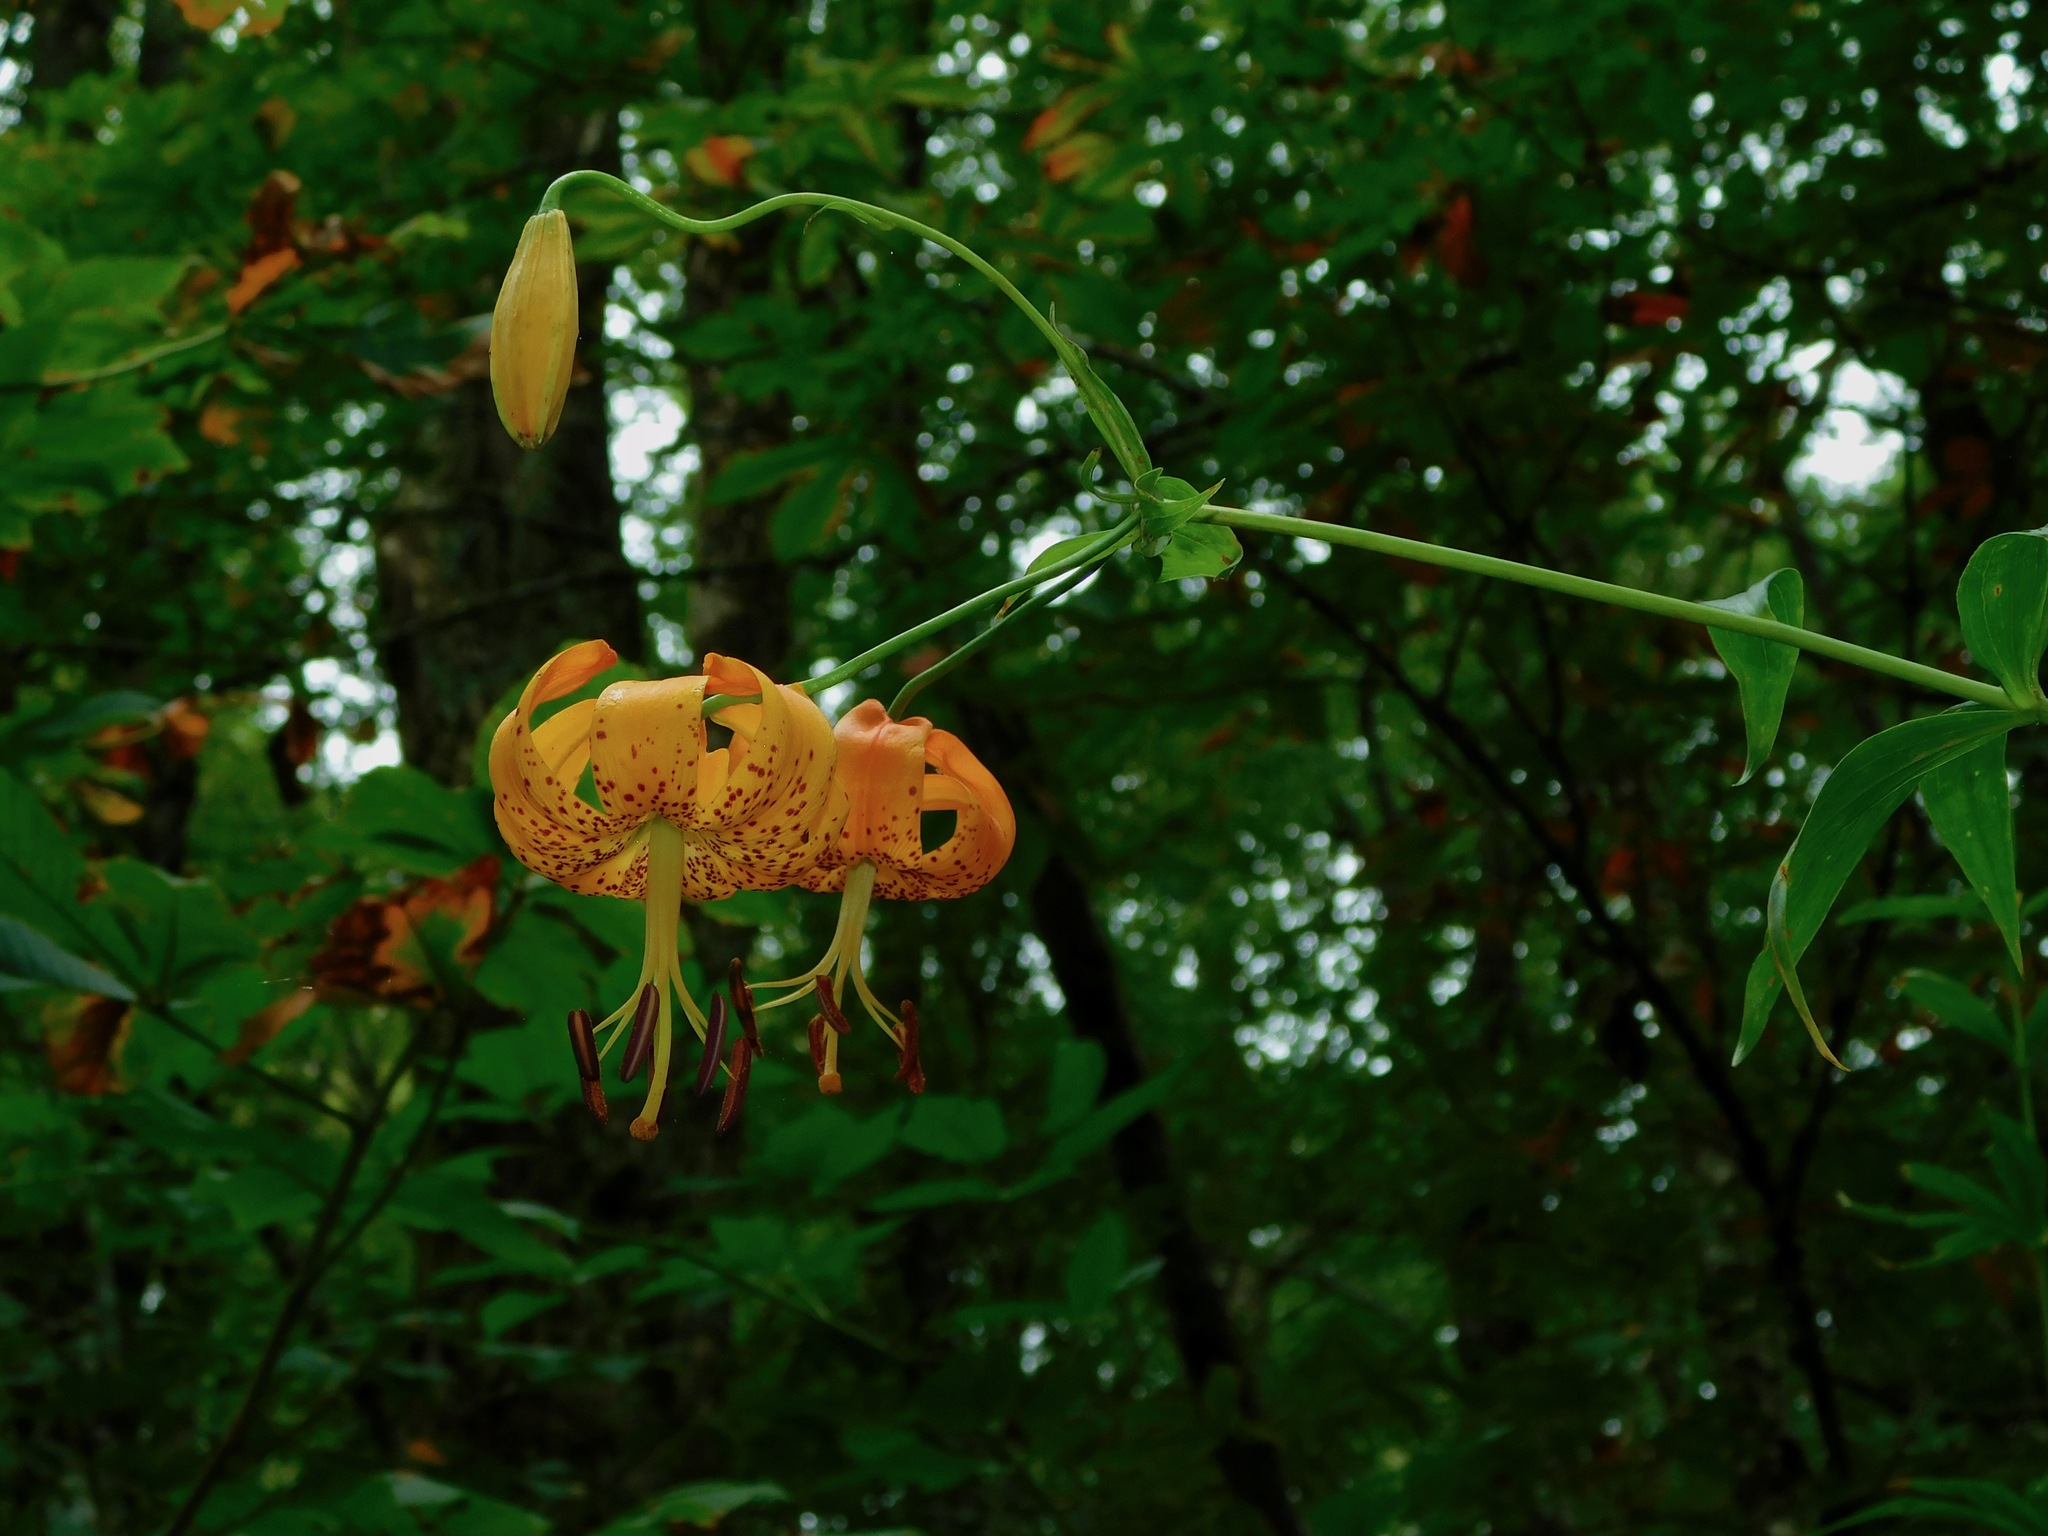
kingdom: Plantae
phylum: Tracheophyta
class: Liliopsida
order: Liliales
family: Liliaceae
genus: Lilium
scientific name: Lilium superbum
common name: American turk's-cap lily
